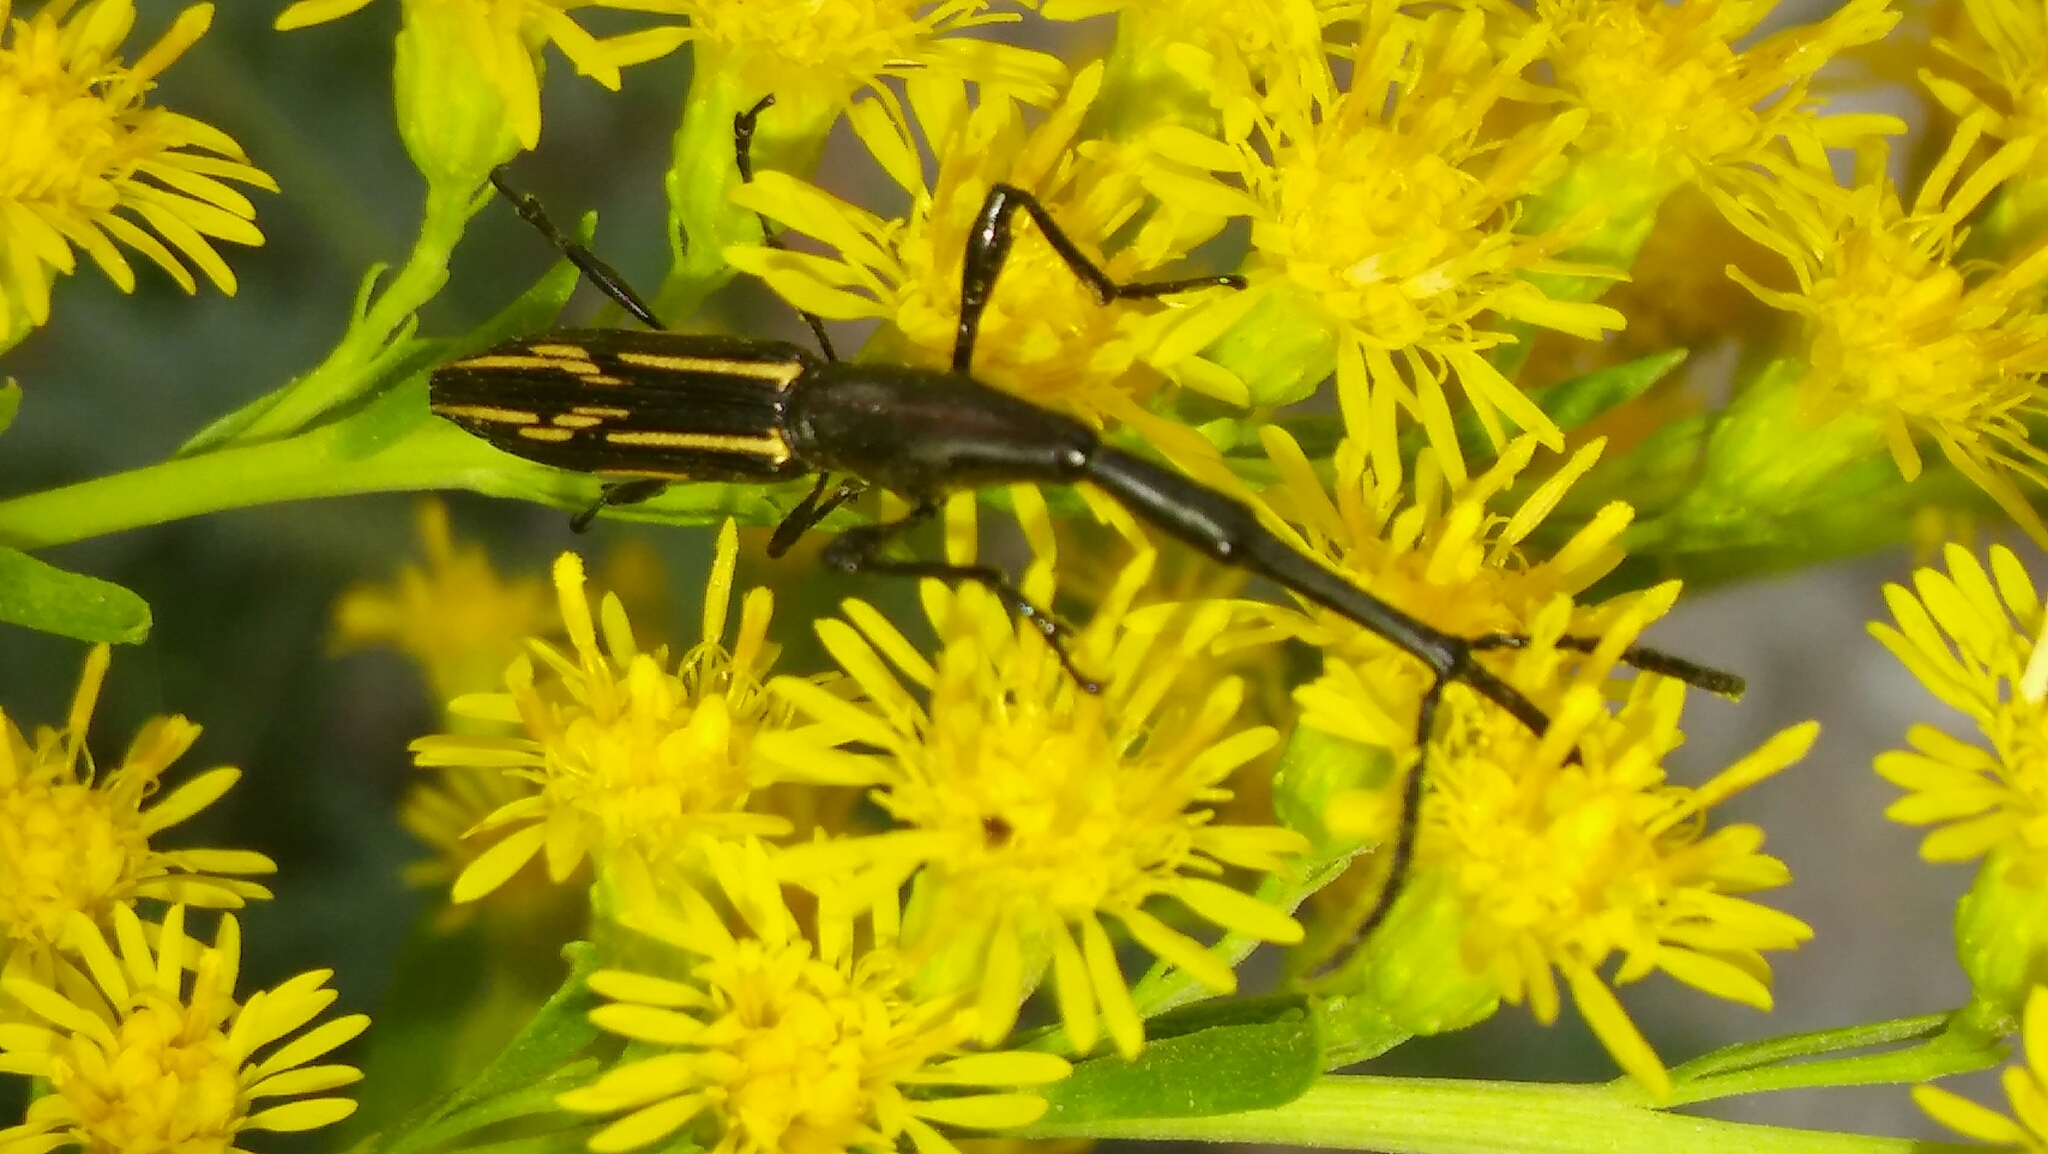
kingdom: Animalia
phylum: Arthropoda
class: Insecta
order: Coleoptera
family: Brentidae
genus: Brentus
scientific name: Brentus rufiventris
